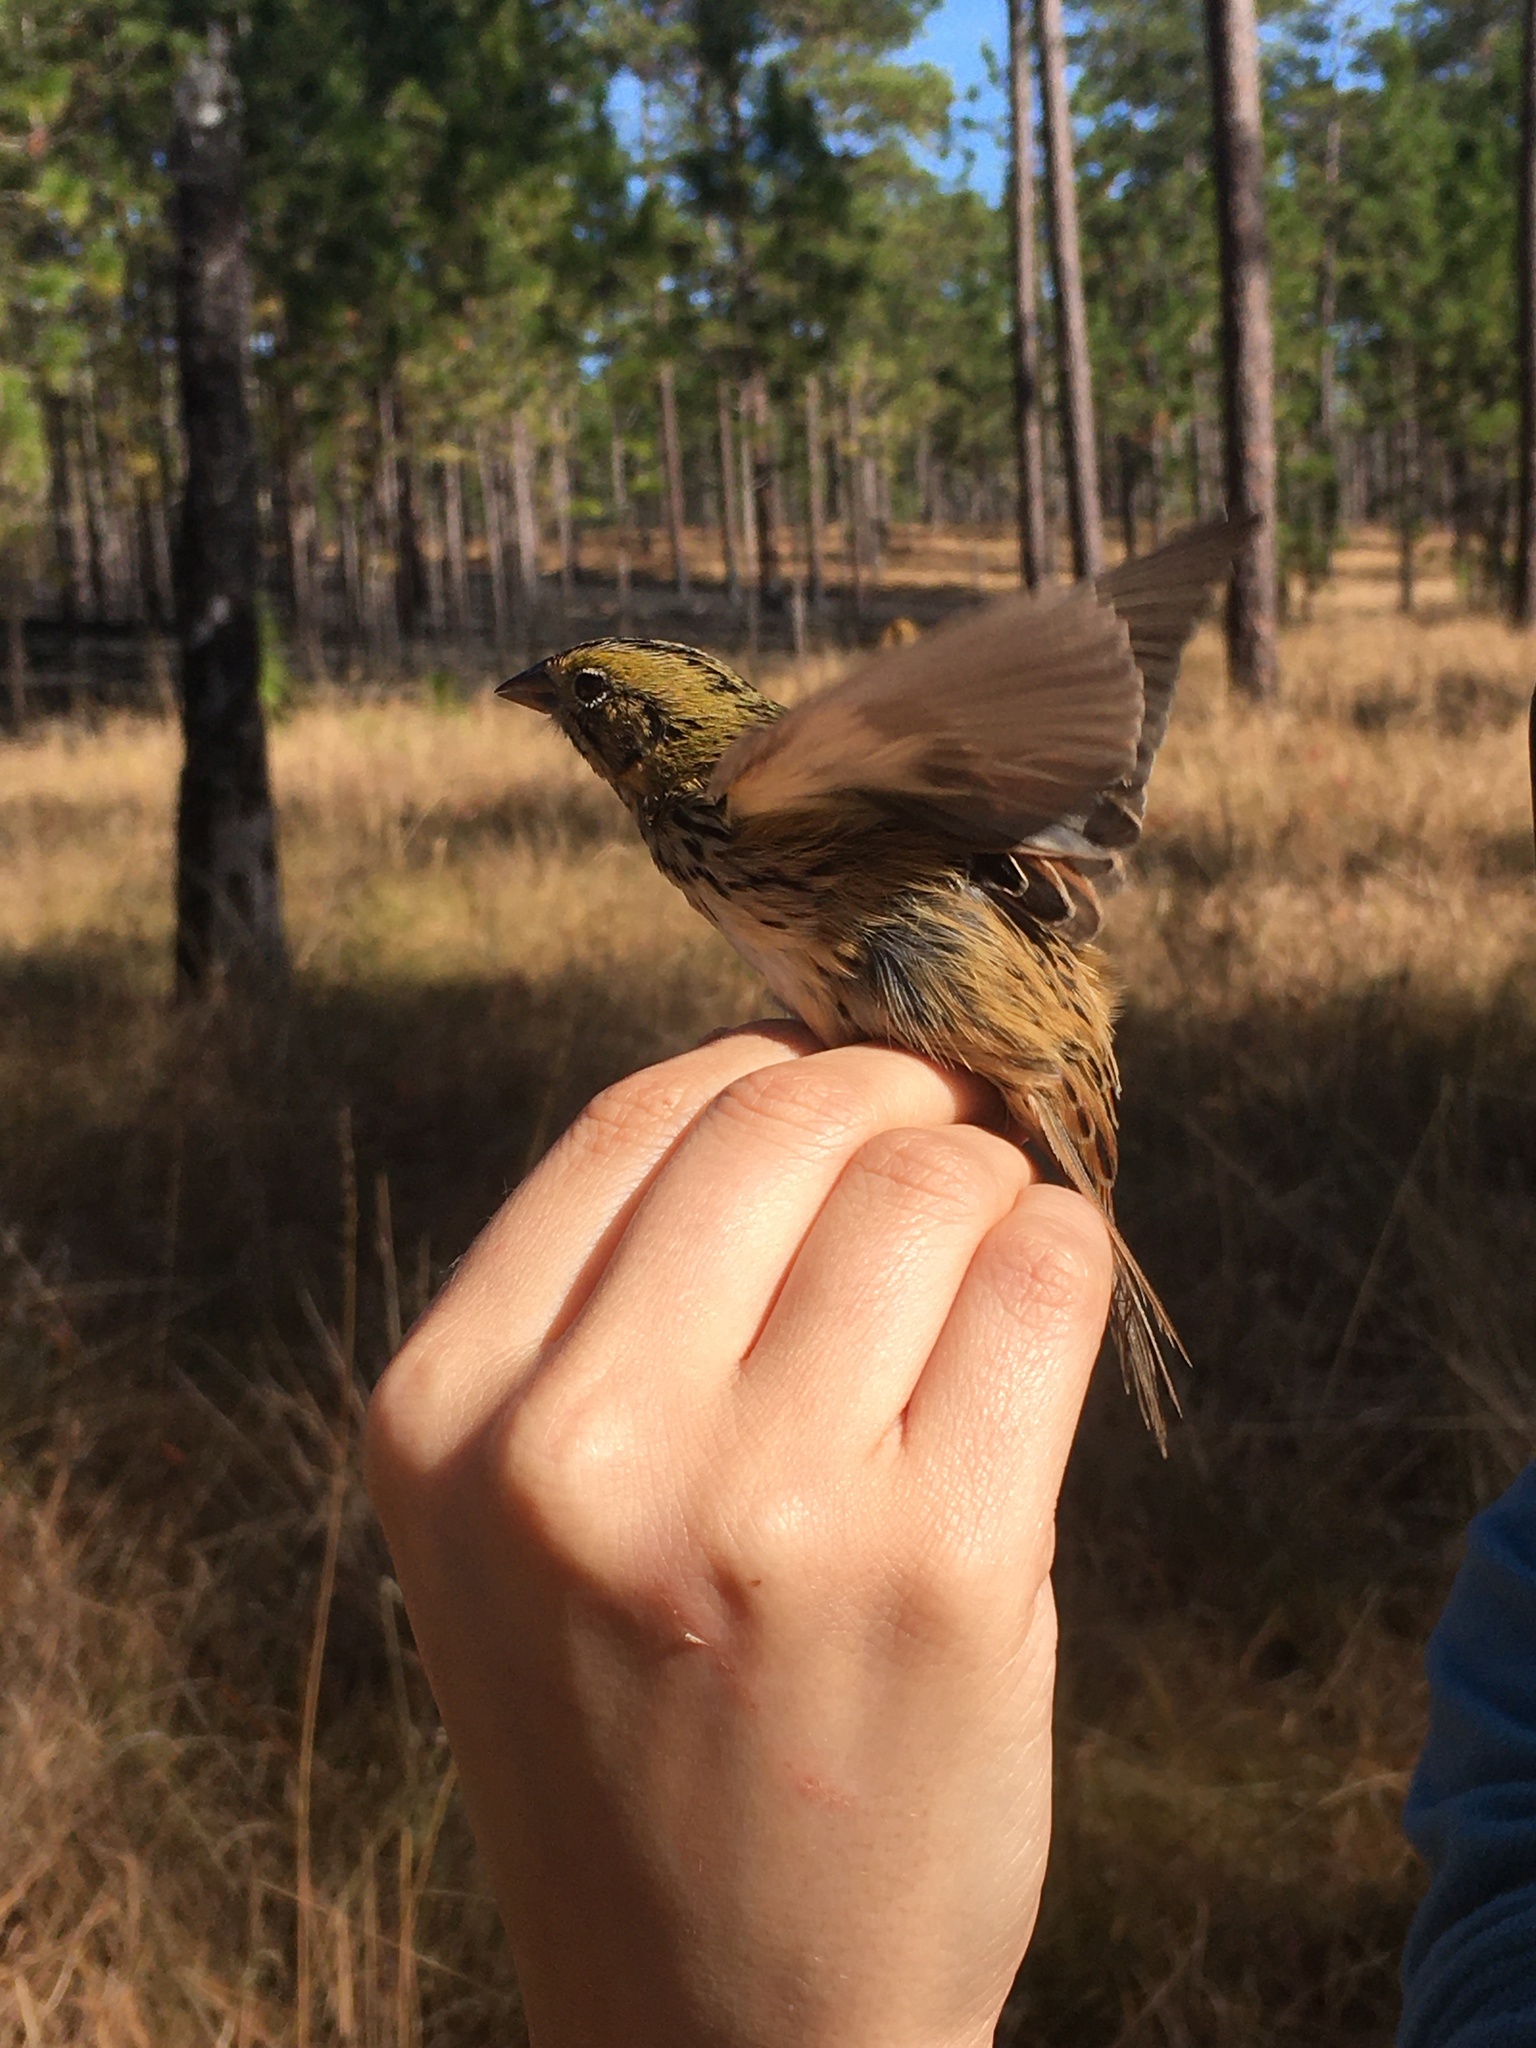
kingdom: Animalia
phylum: Chordata
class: Aves
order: Passeriformes
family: Passerellidae
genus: Centronyx
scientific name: Centronyx henslowii
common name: Henslow's sparrow
